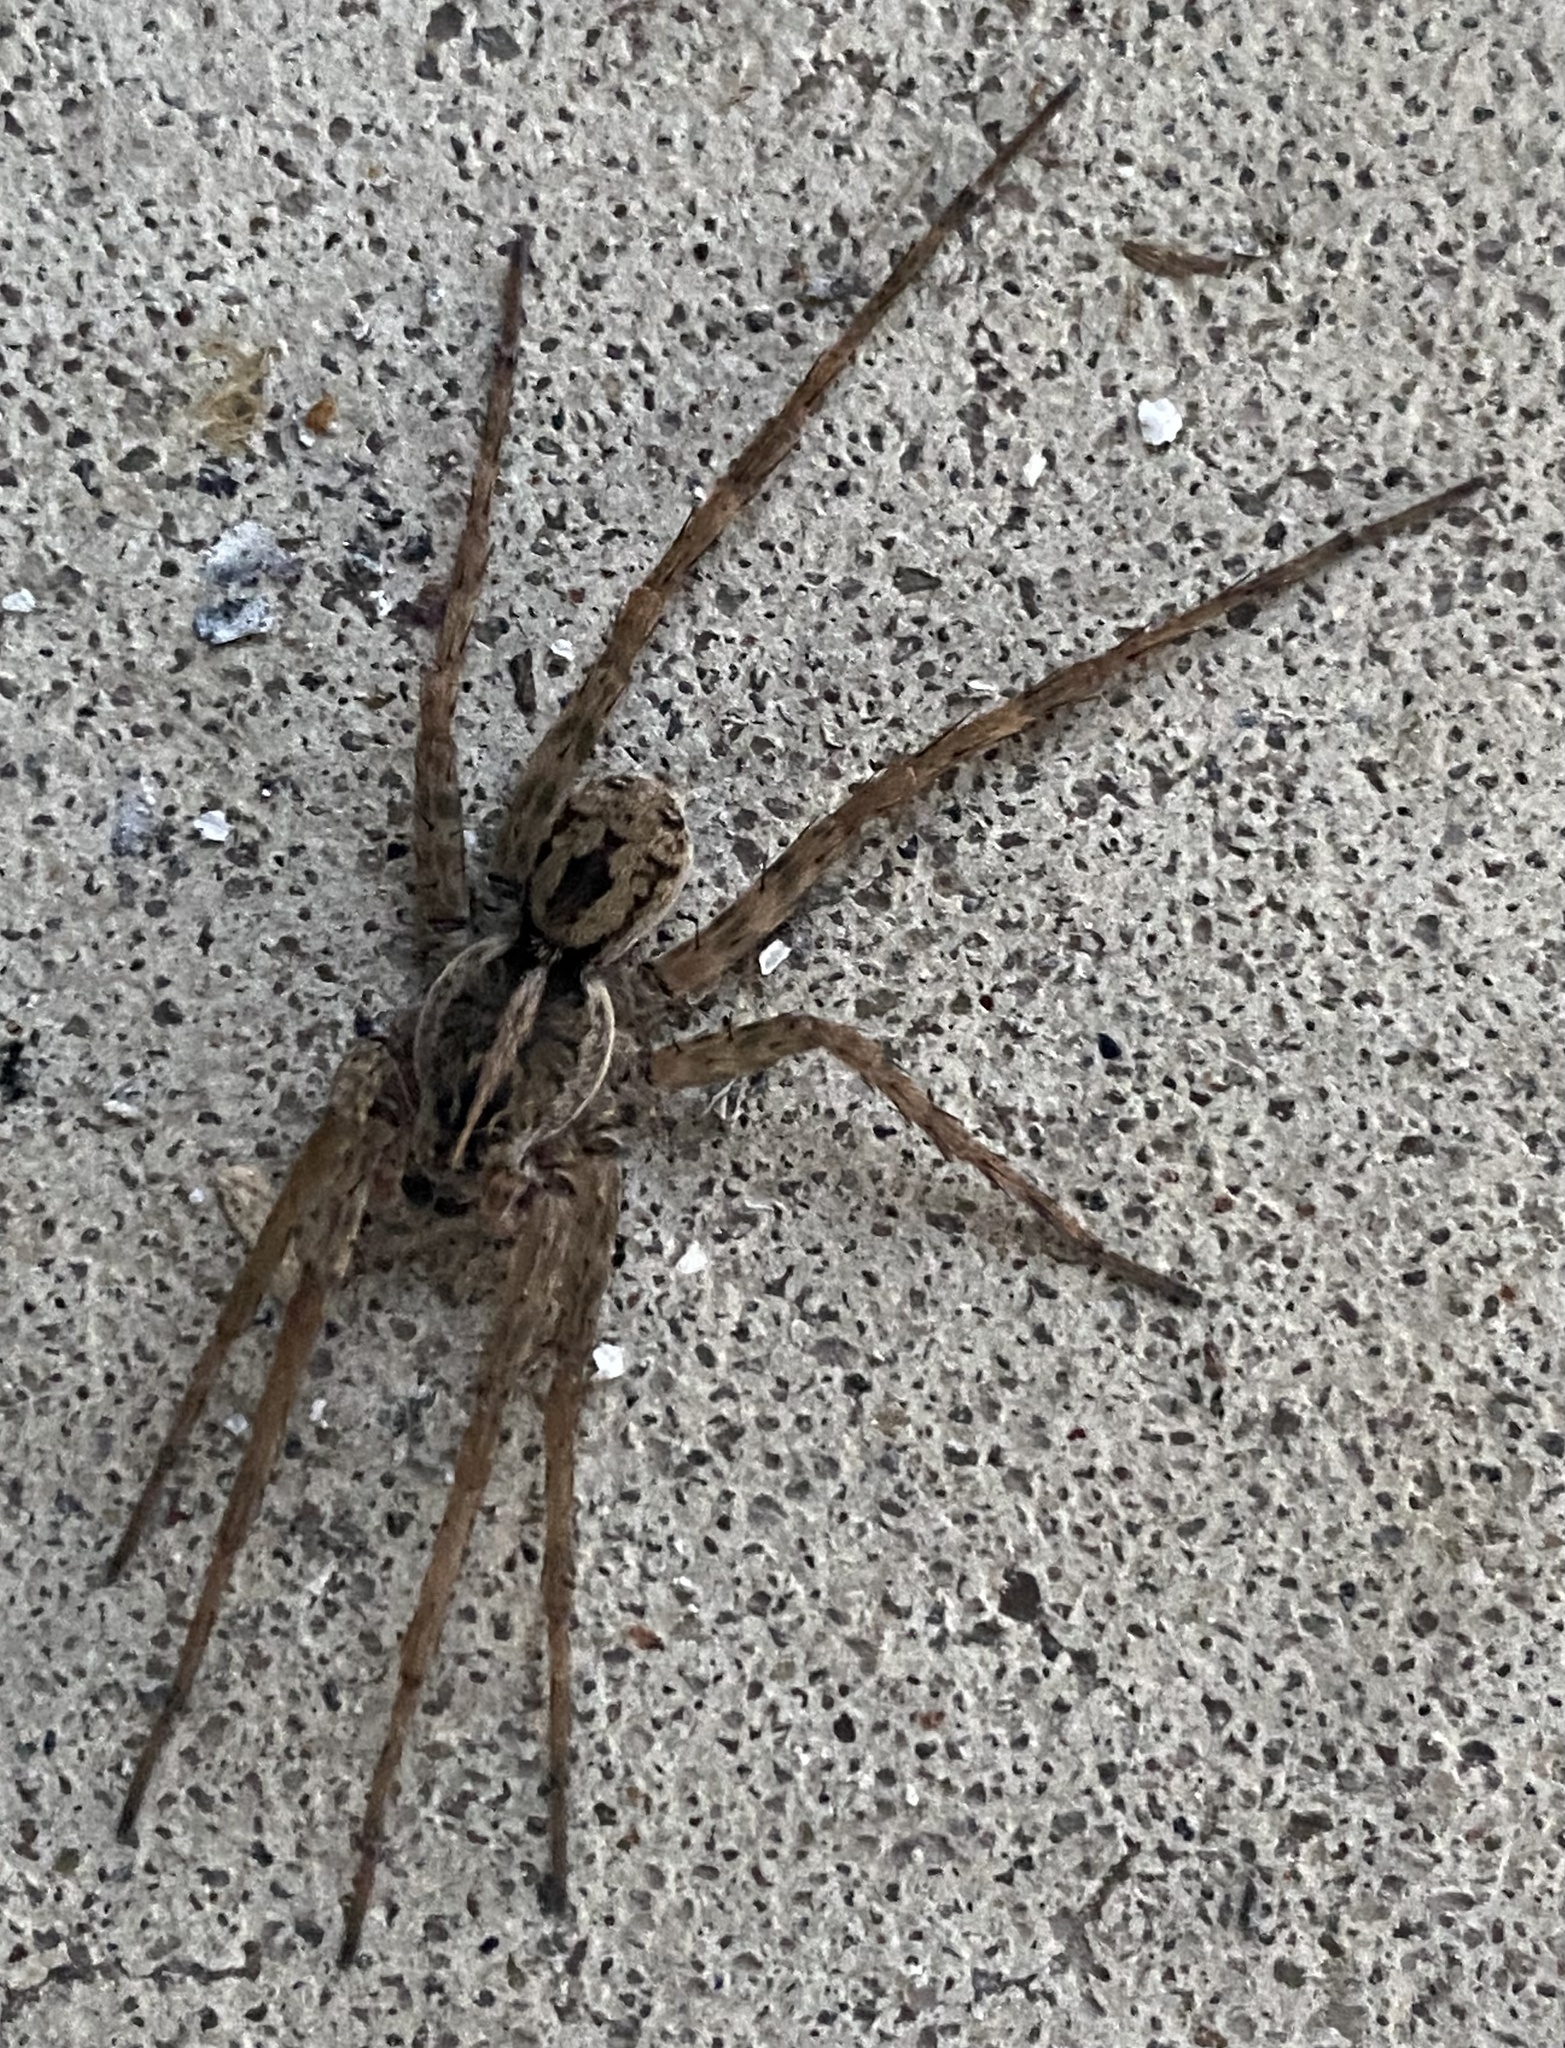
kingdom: Animalia
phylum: Arthropoda
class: Arachnida
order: Araneae
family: Lycosidae
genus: Tigrosa
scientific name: Tigrosa georgicola
